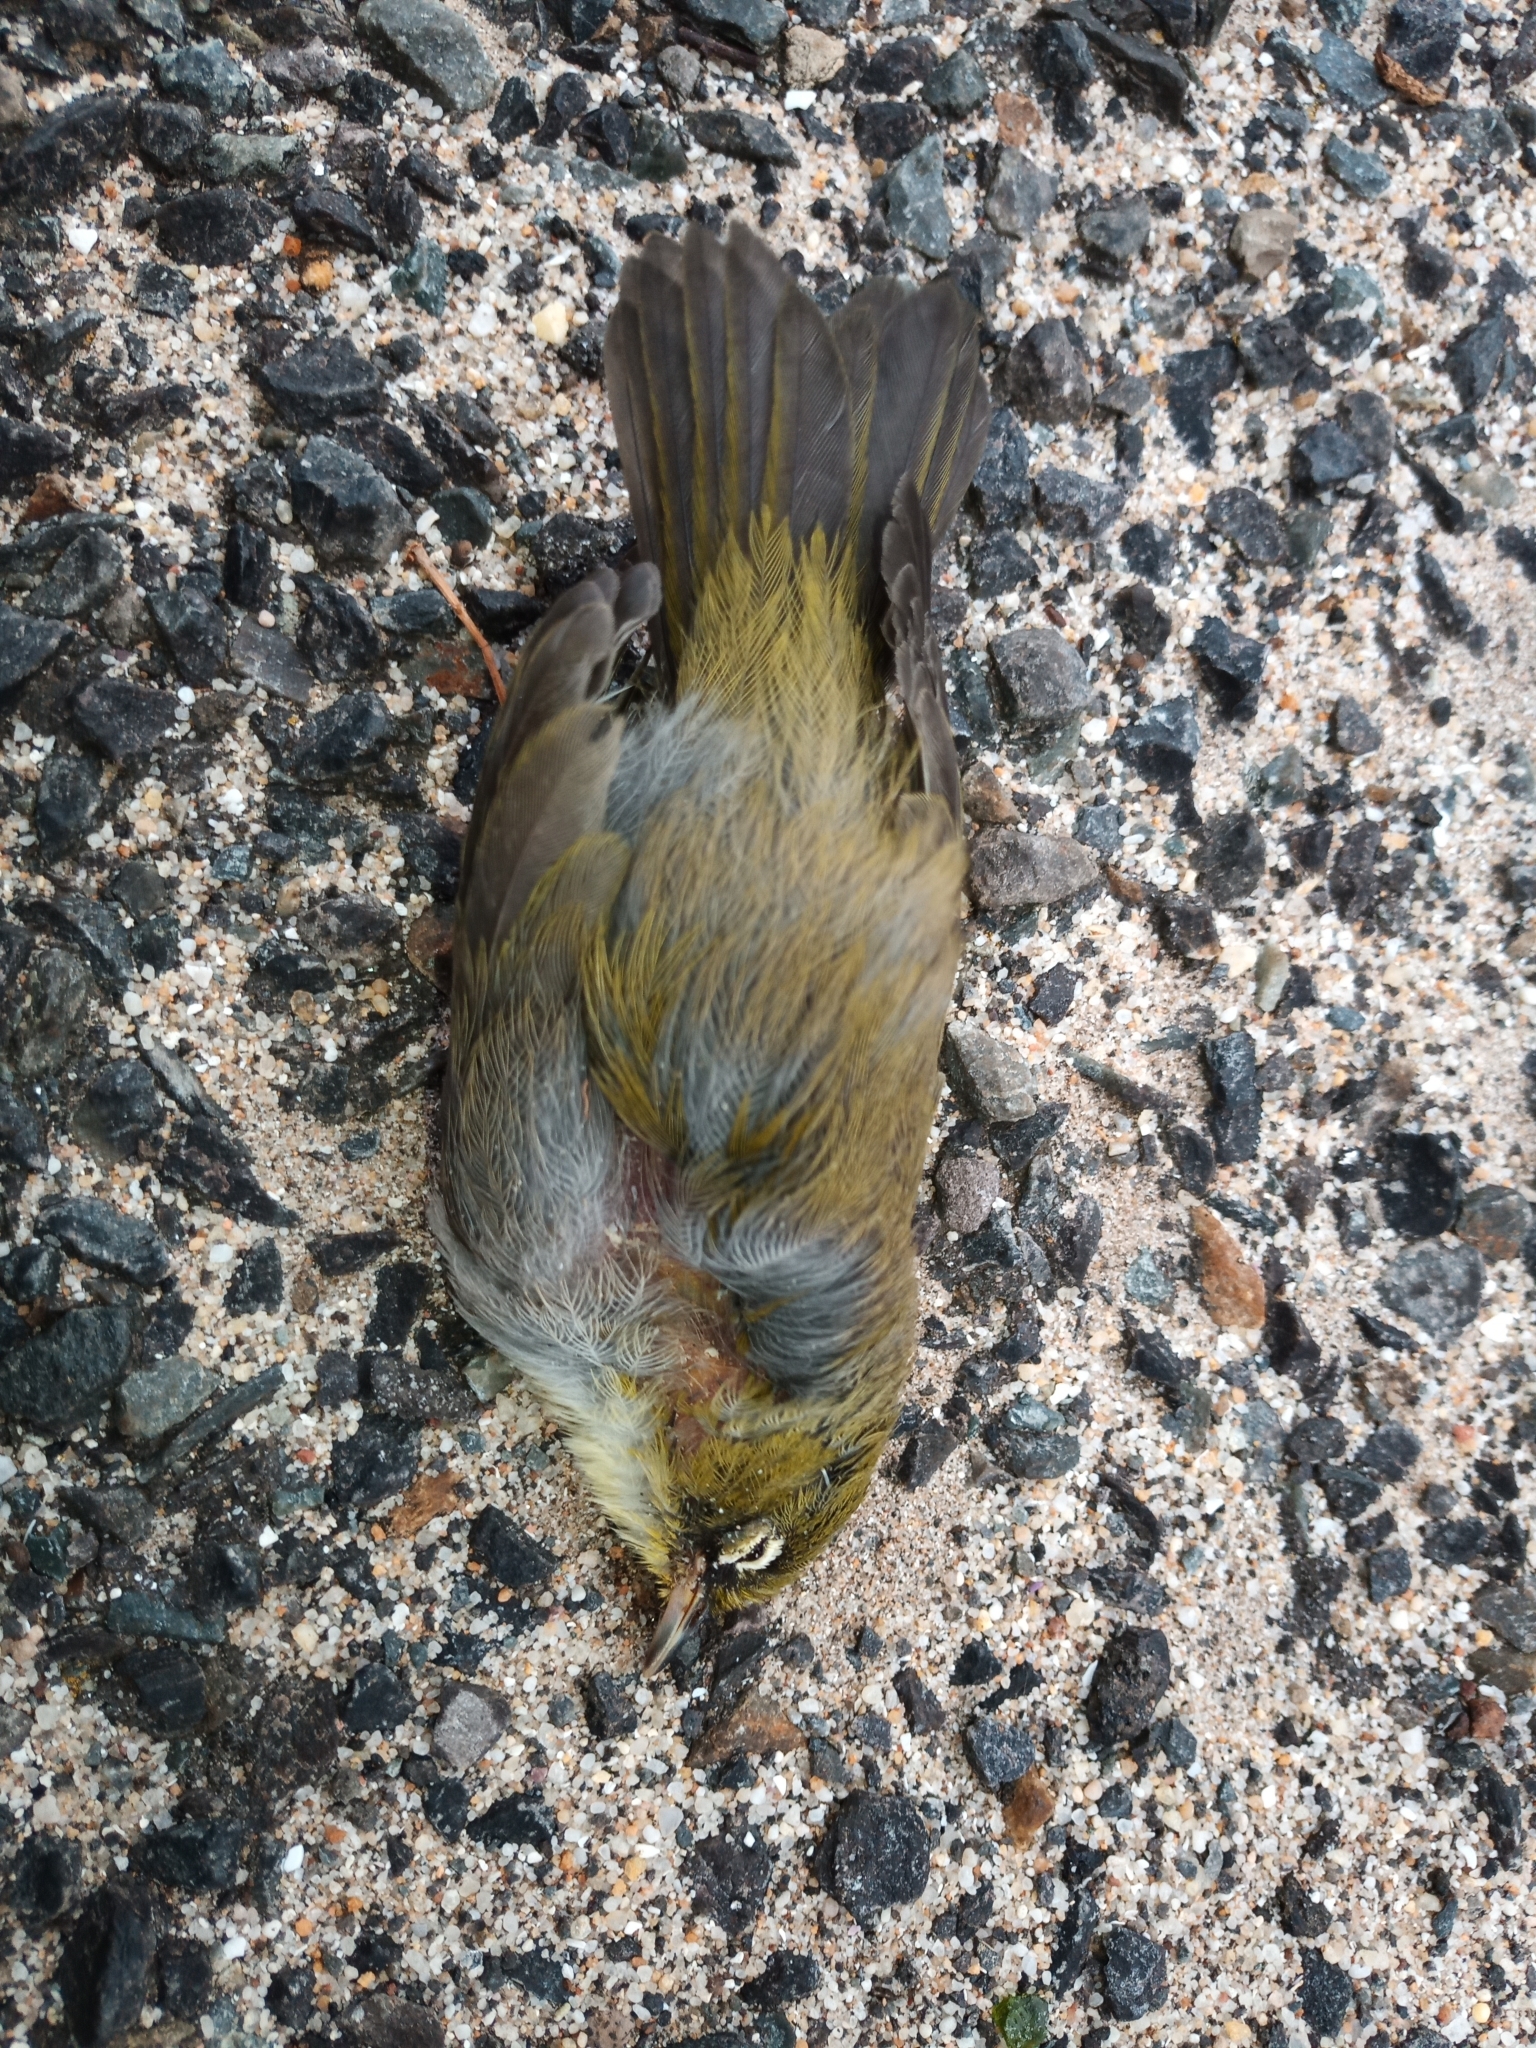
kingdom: Animalia
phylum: Chordata
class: Aves
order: Passeriformes
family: Zosteropidae
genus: Zosterops
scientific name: Zosterops virens
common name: Cape white-eye
